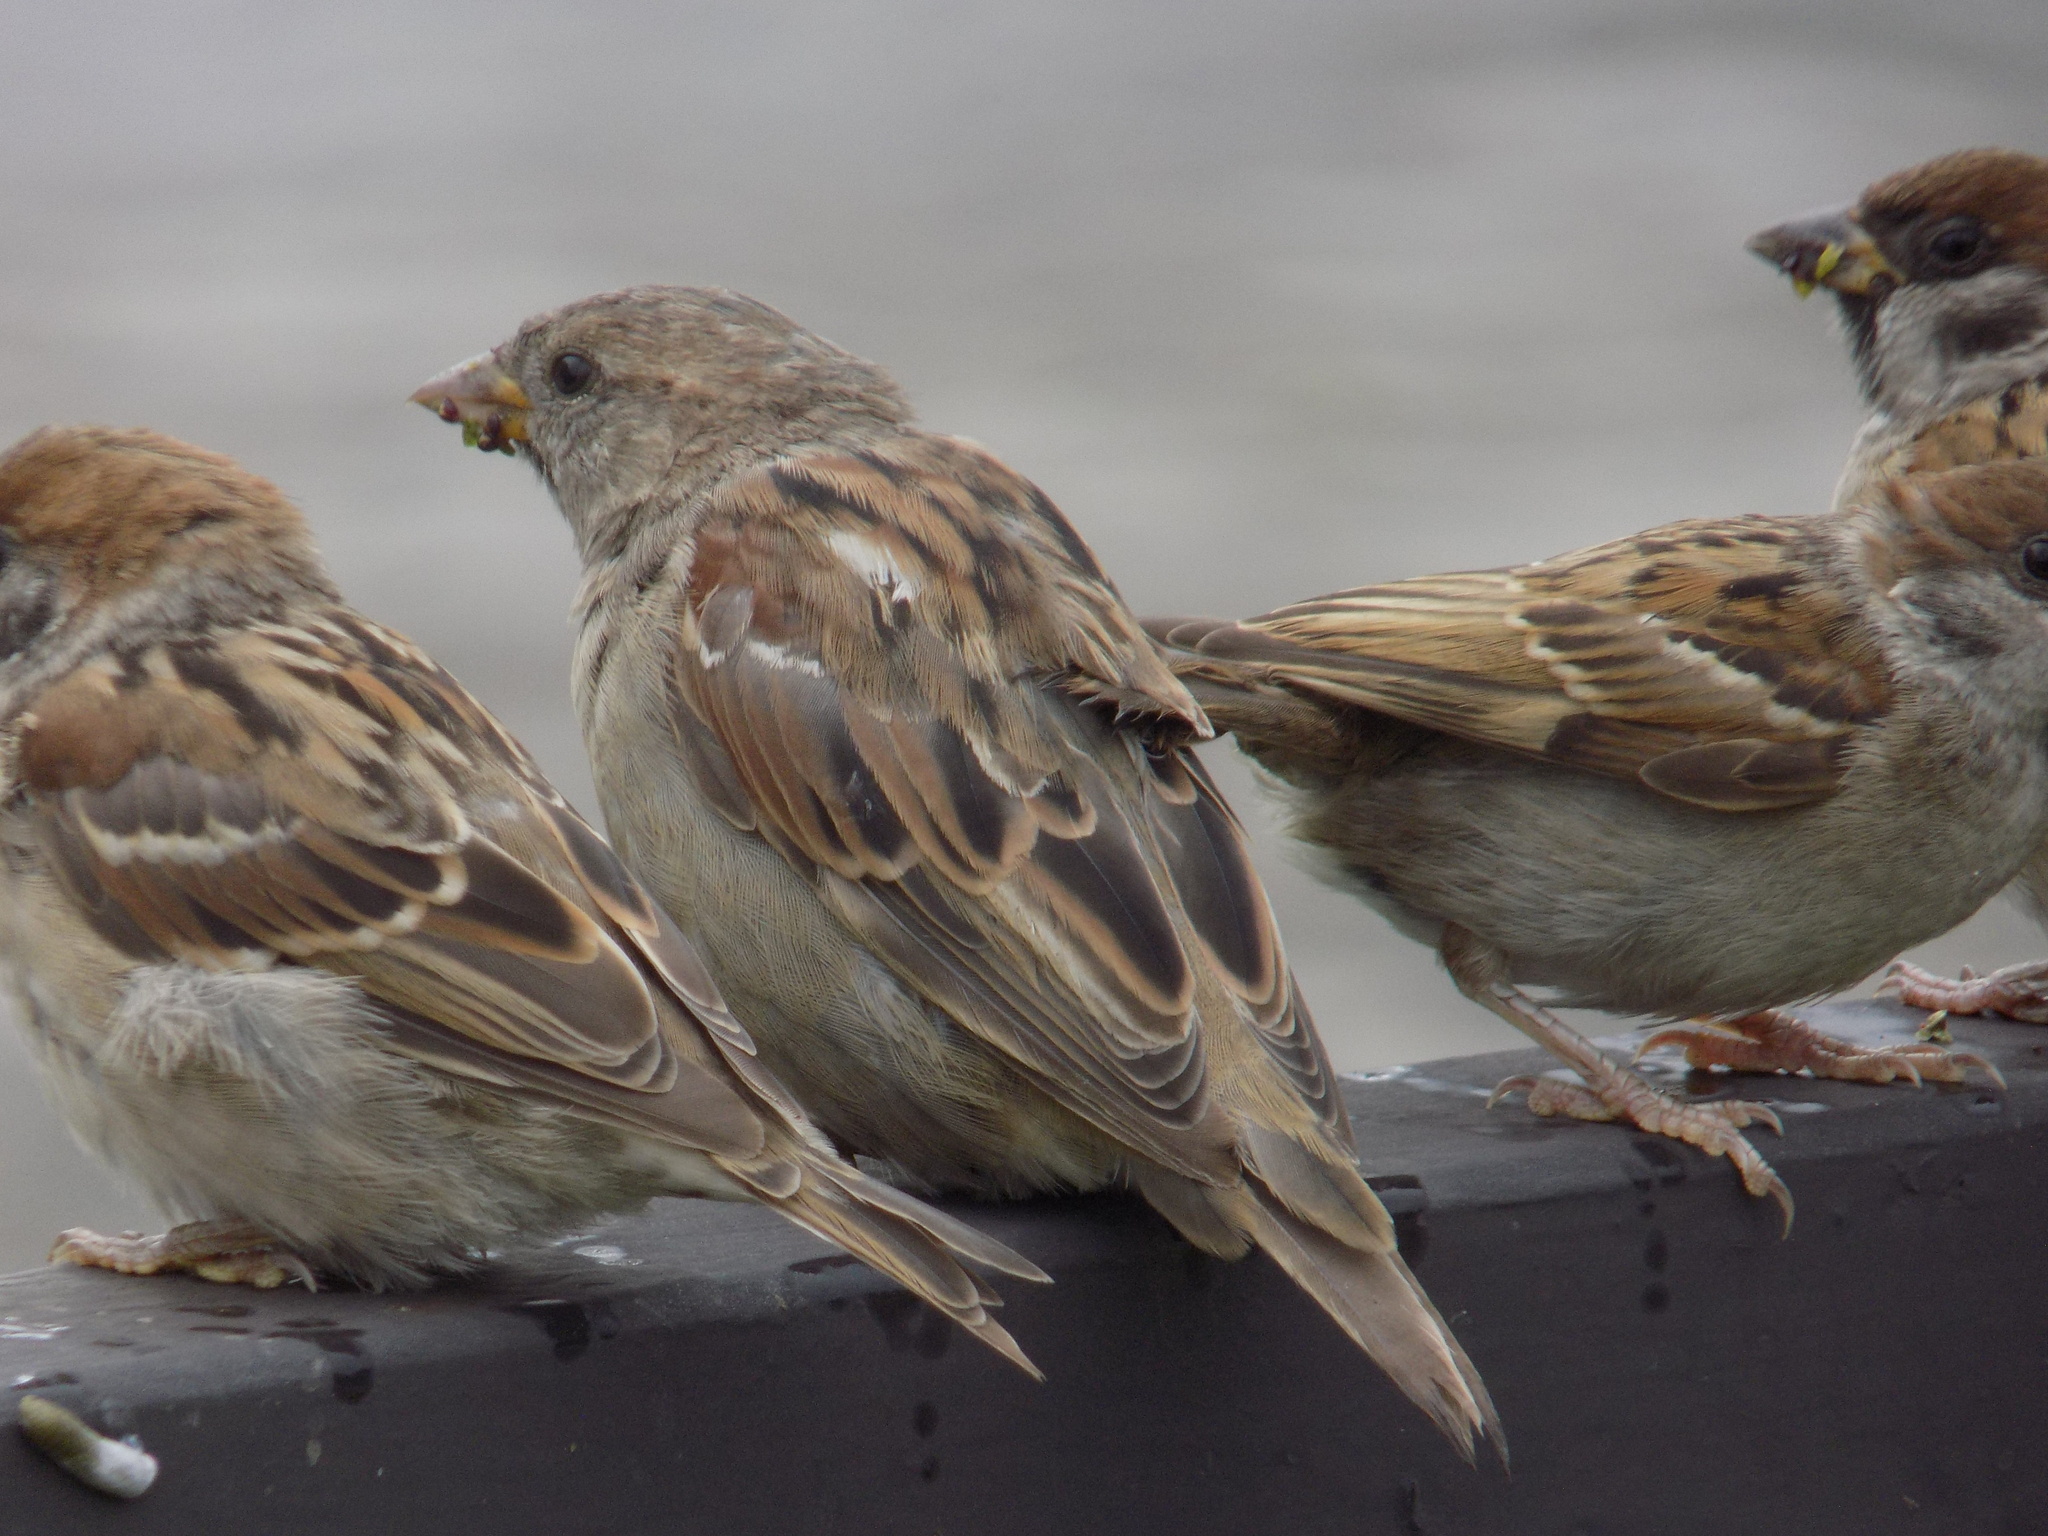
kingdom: Animalia
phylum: Chordata
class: Aves
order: Passeriformes
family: Passeridae
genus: Passer
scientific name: Passer domesticus
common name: House sparrow
